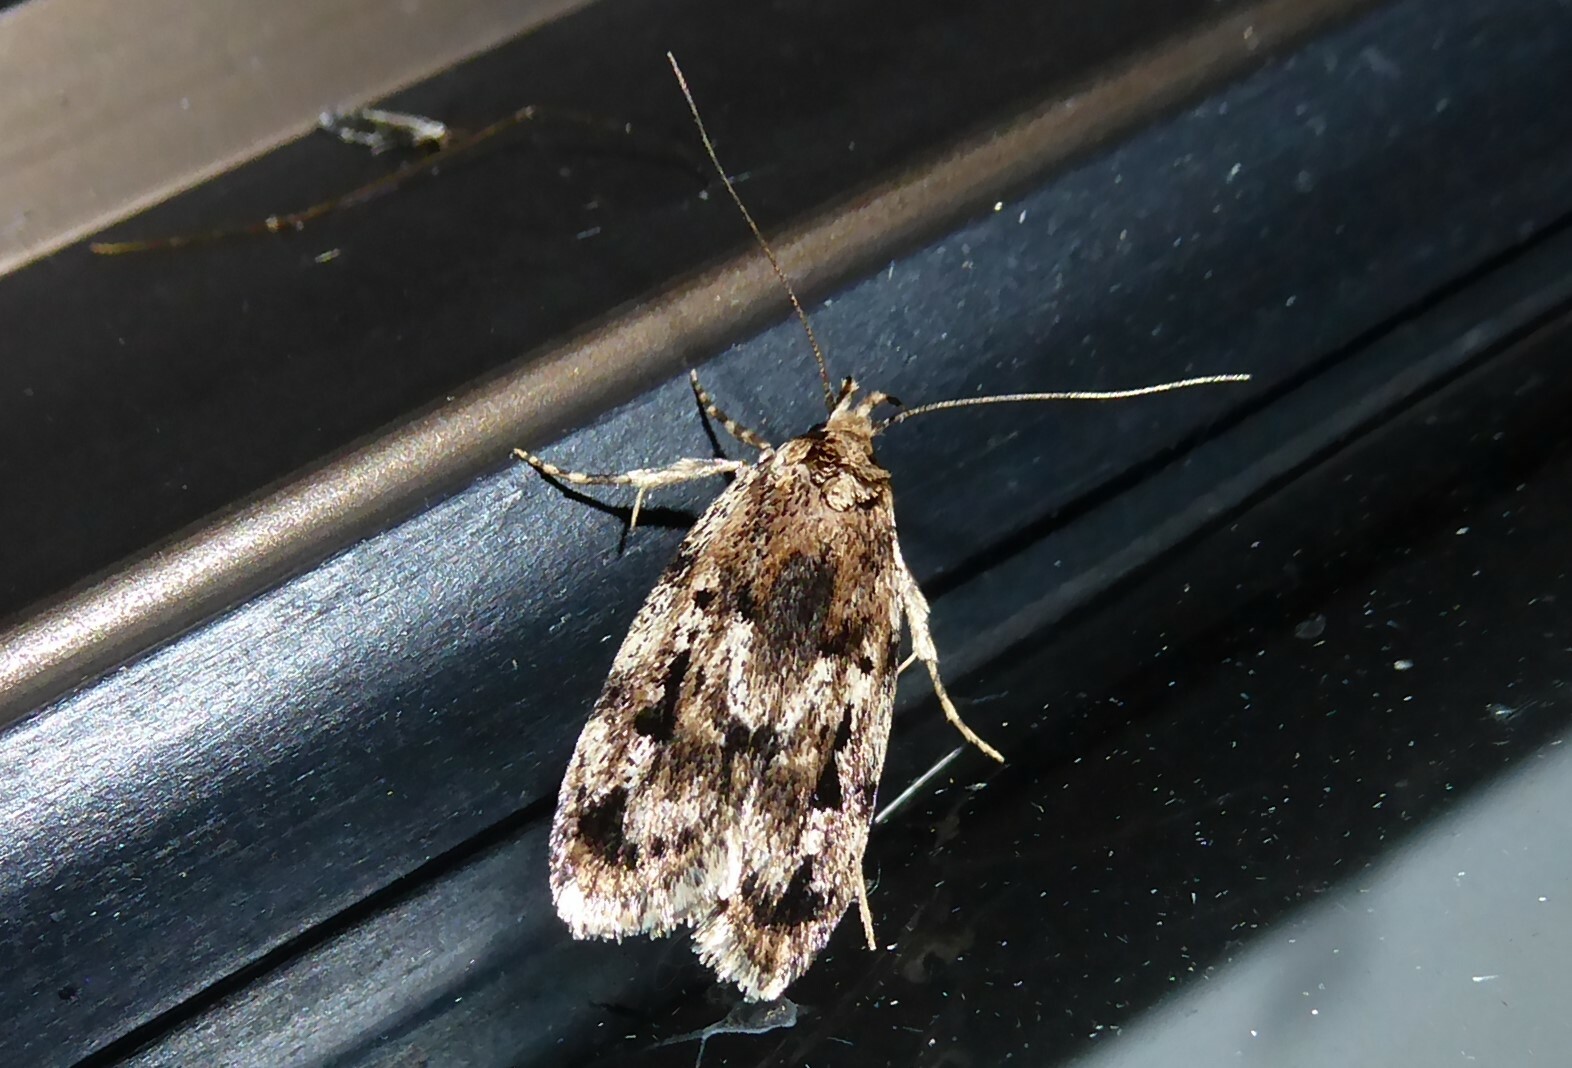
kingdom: Animalia
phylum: Arthropoda
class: Insecta
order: Lepidoptera
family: Oecophoridae
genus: Barea
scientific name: Barea exarcha
